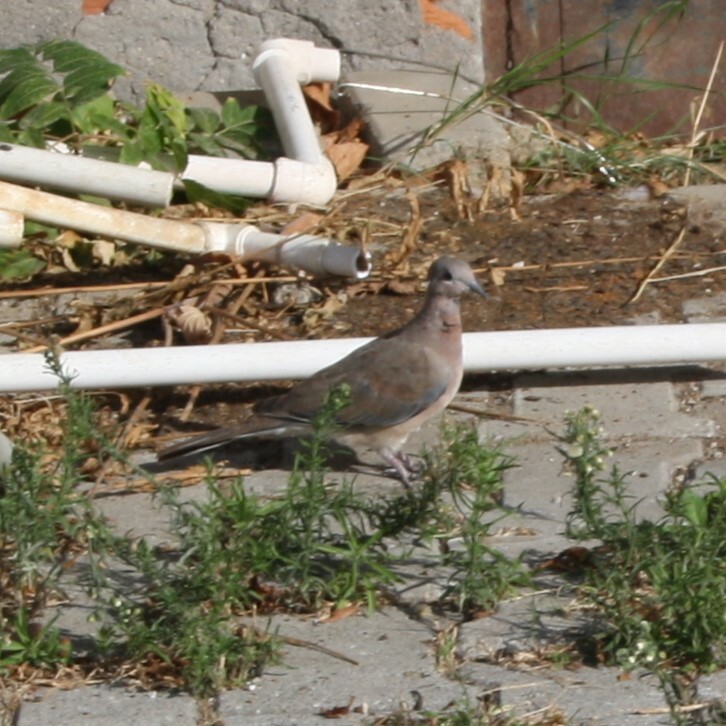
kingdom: Animalia
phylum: Chordata
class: Aves
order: Columbiformes
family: Columbidae
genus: Spilopelia
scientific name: Spilopelia senegalensis
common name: Laughing dove
